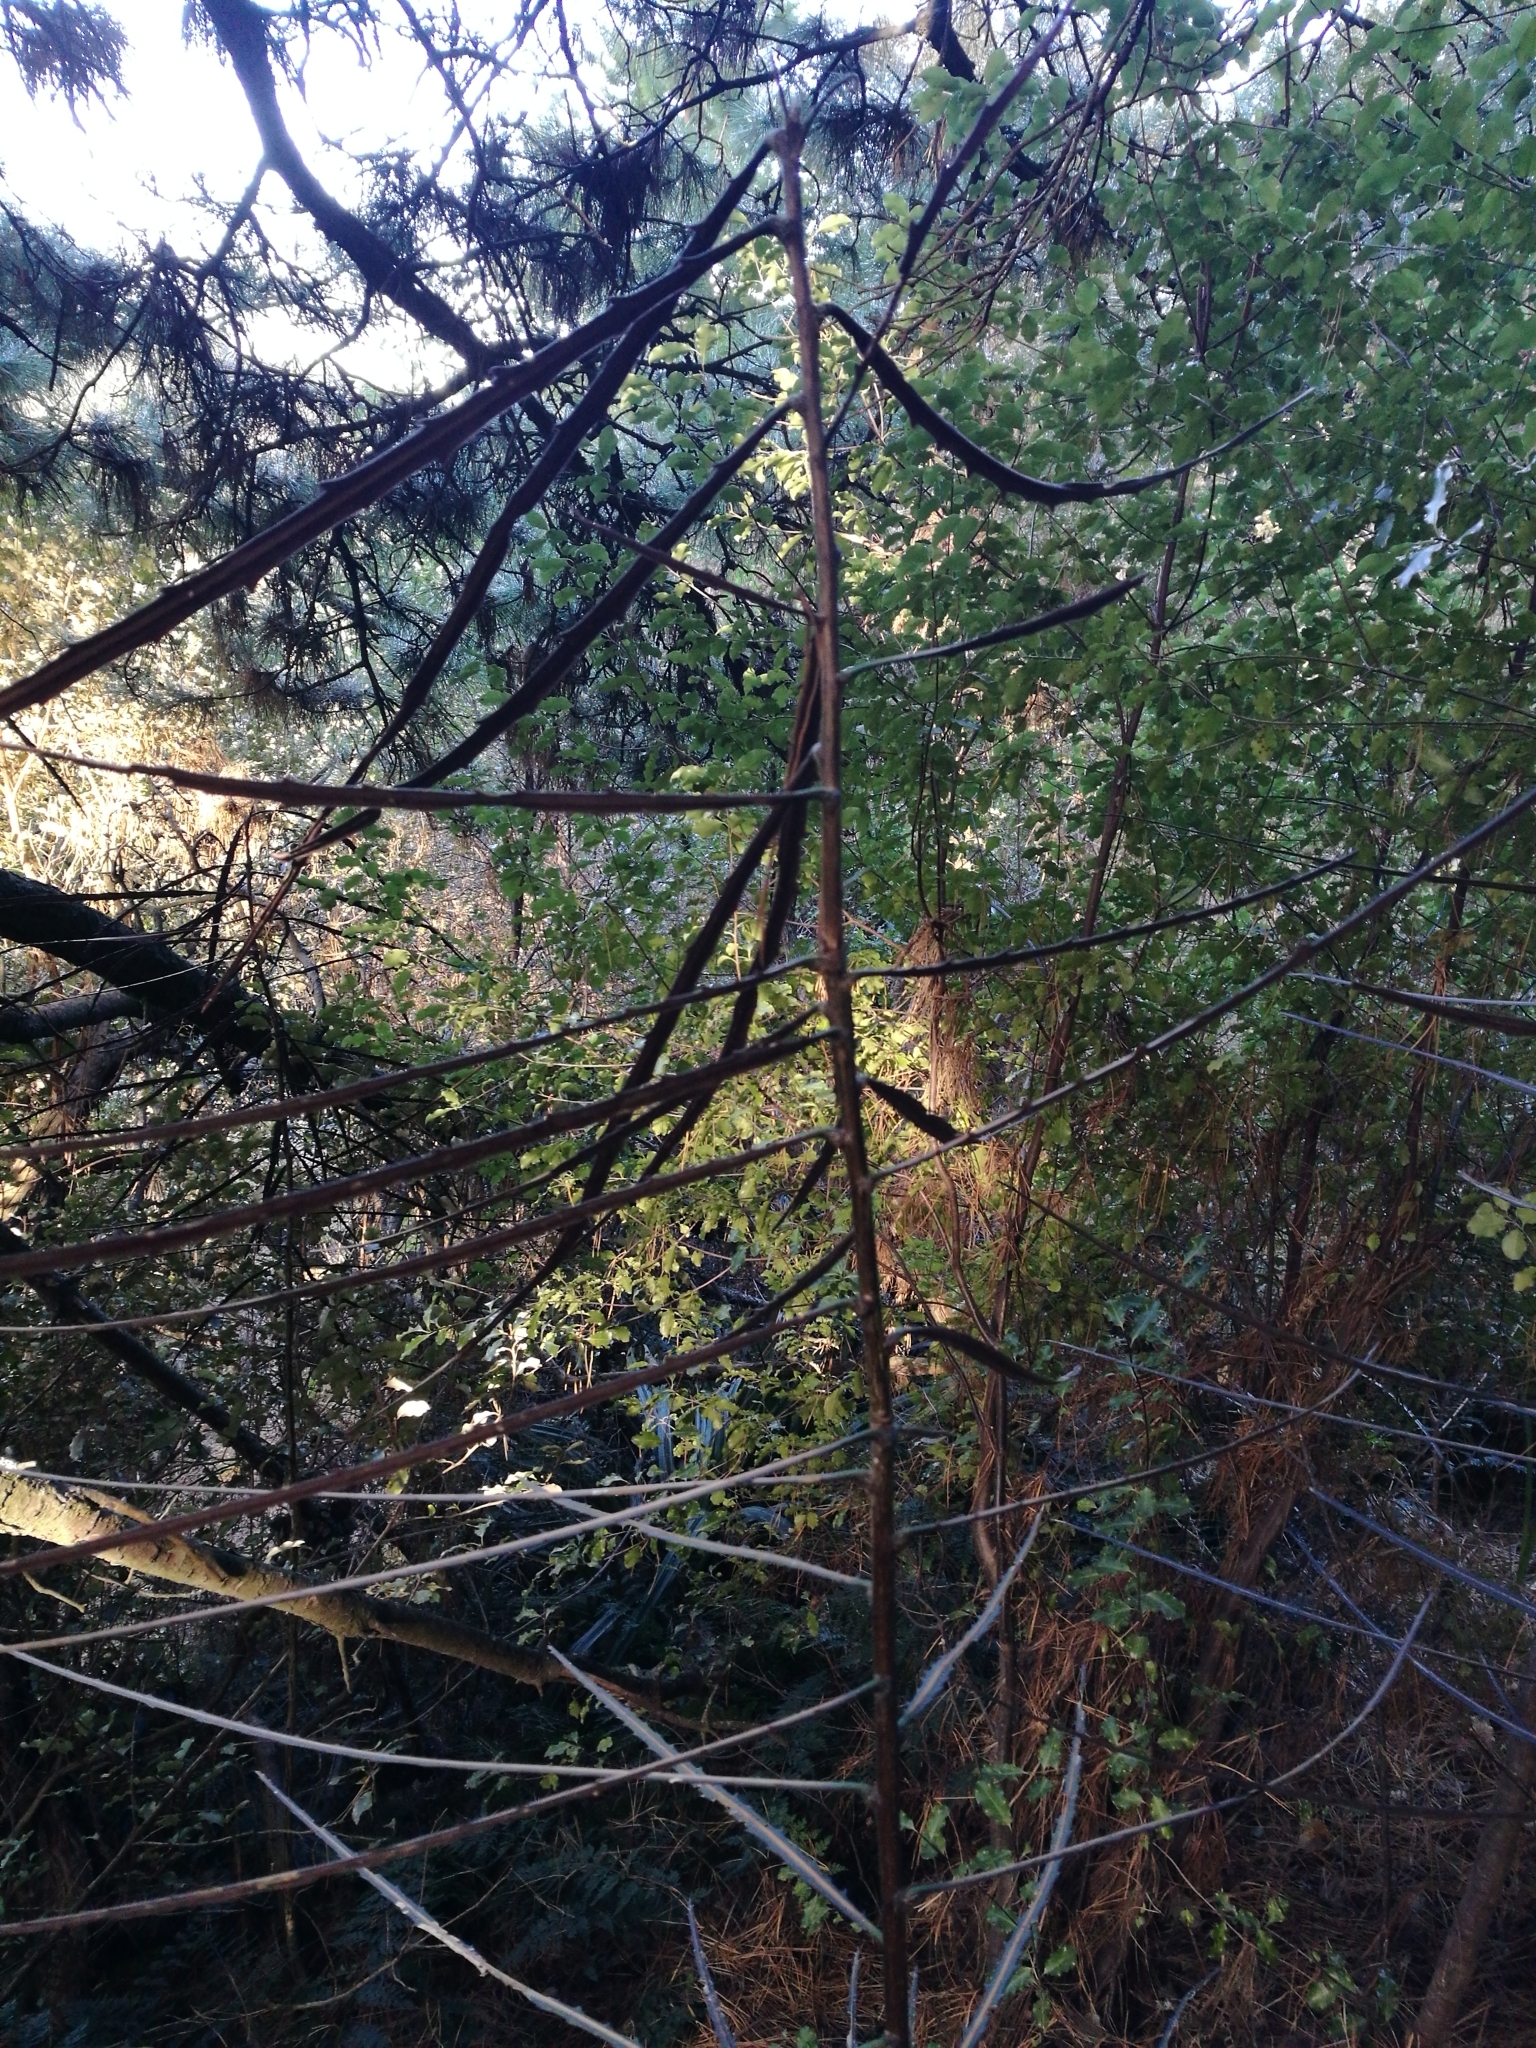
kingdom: Plantae
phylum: Tracheophyta
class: Magnoliopsida
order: Apiales
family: Araliaceae
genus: Pseudopanax
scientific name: Pseudopanax crassifolius
